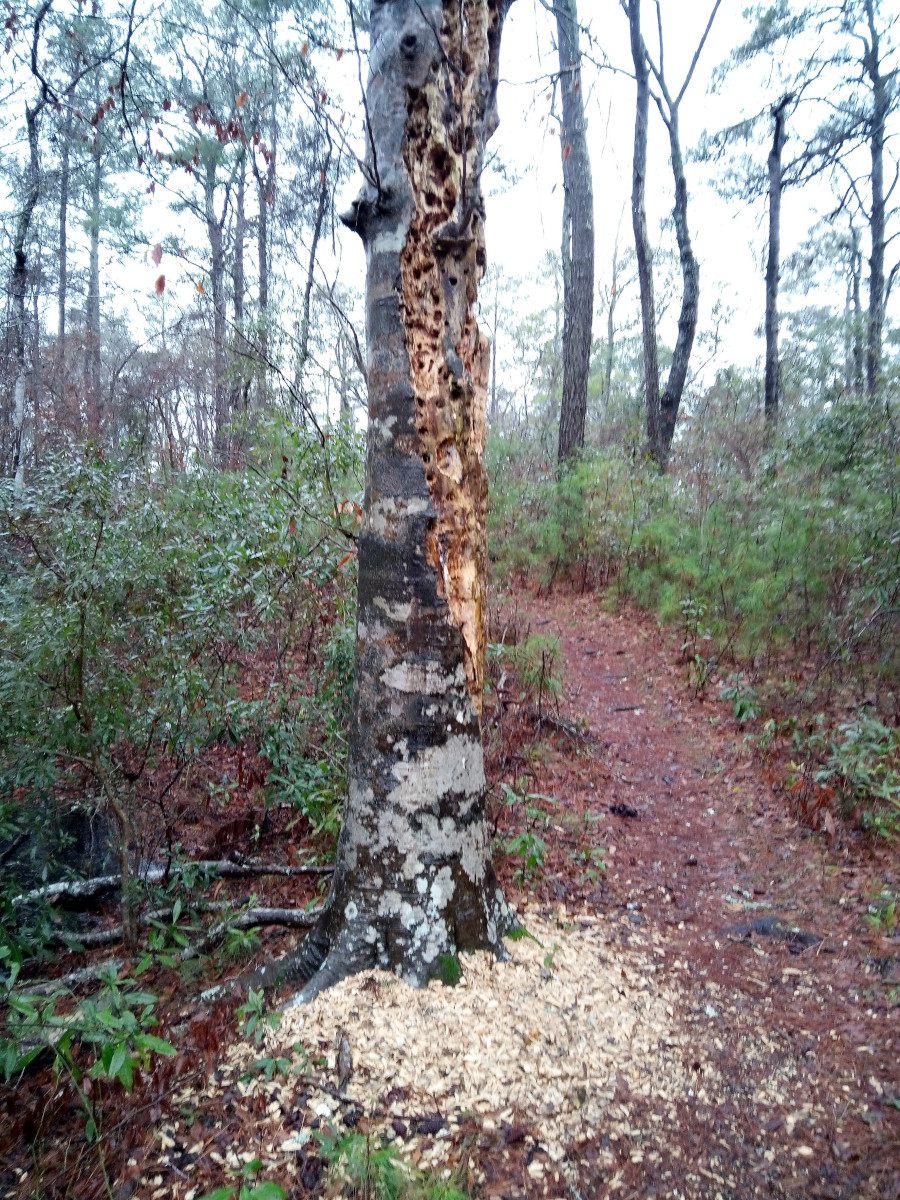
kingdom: Animalia
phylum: Chordata
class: Aves
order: Piciformes
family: Picidae
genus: Dryocopus
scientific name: Dryocopus pileatus
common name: Pileated woodpecker
